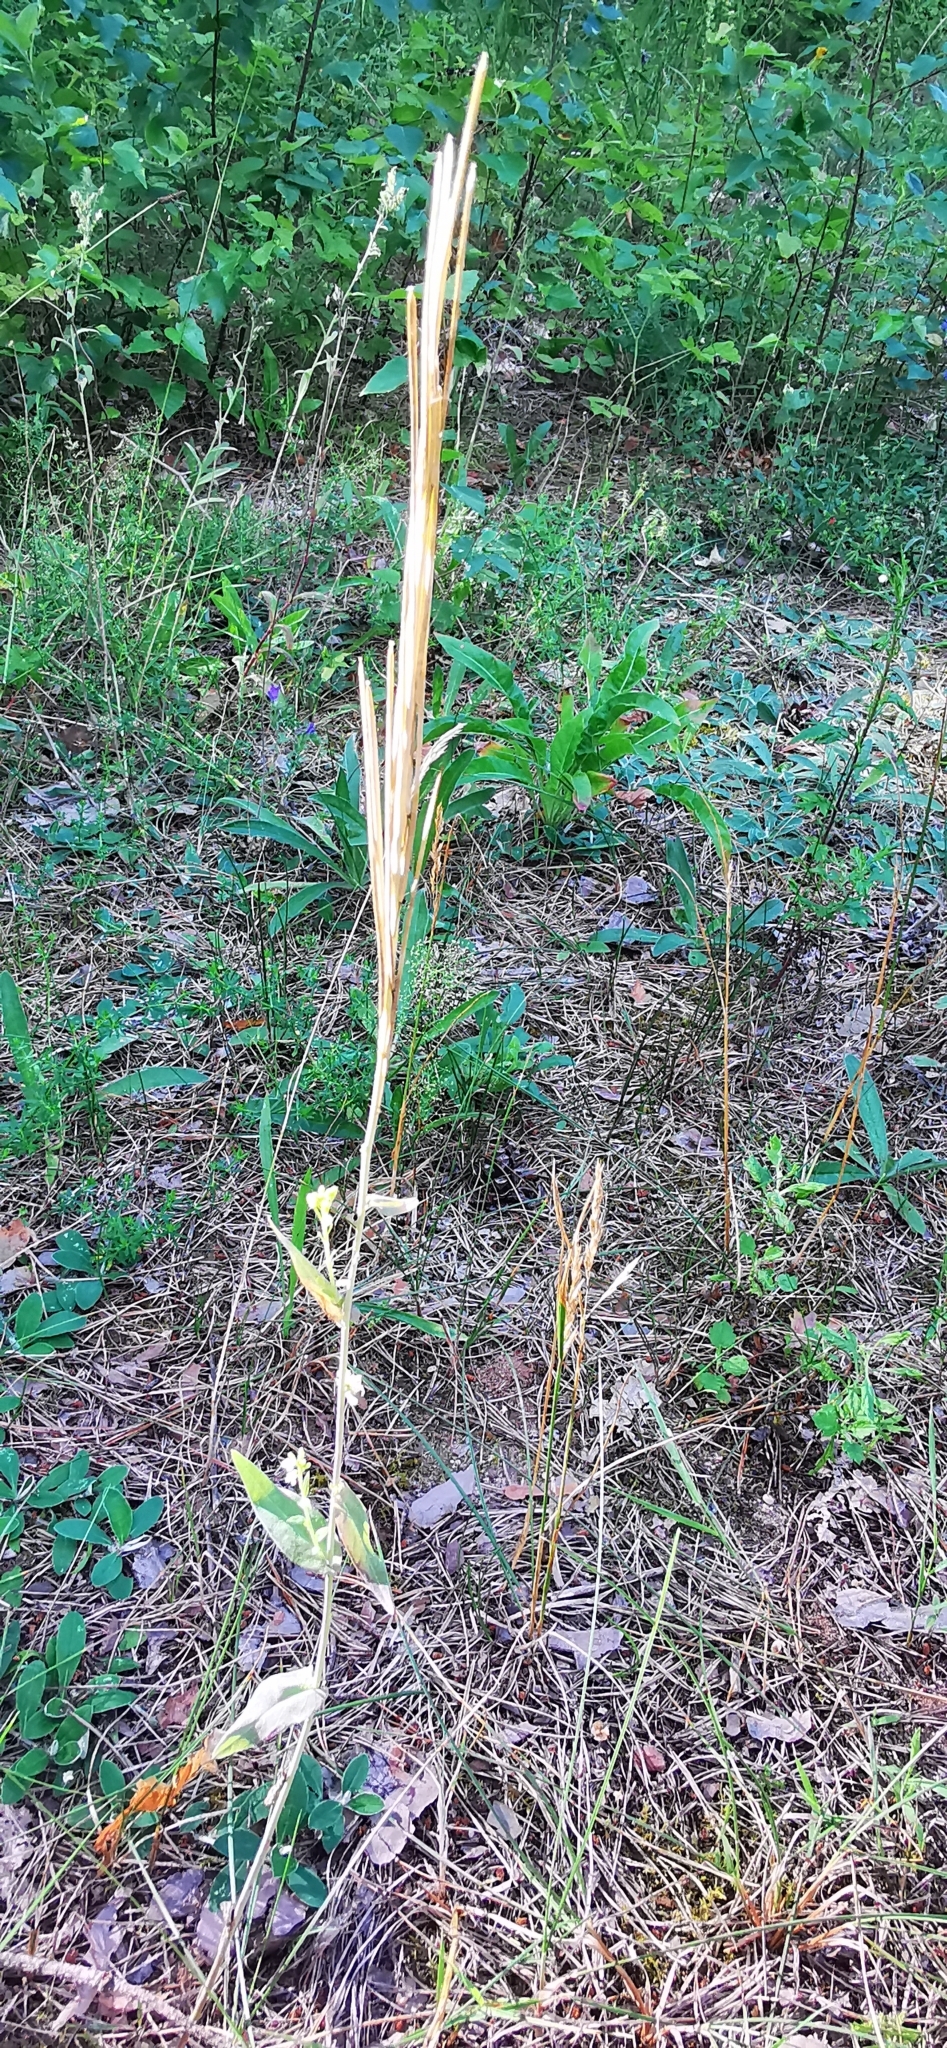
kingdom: Plantae
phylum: Tracheophyta
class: Magnoliopsida
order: Brassicales
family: Brassicaceae
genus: Turritis
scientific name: Turritis glabra
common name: Tower rockcress
